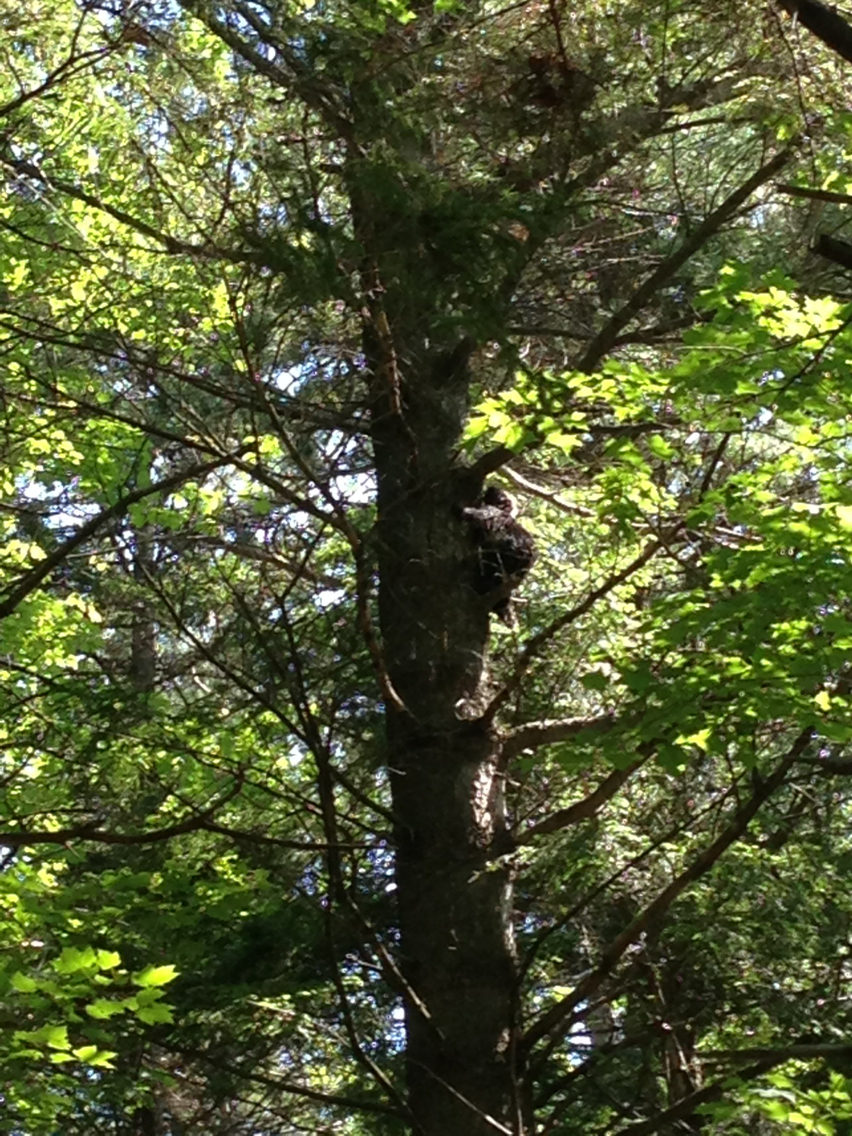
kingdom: Animalia
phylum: Chordata
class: Mammalia
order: Rodentia
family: Erethizontidae
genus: Erethizon
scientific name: Erethizon dorsatus
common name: North american porcupine
